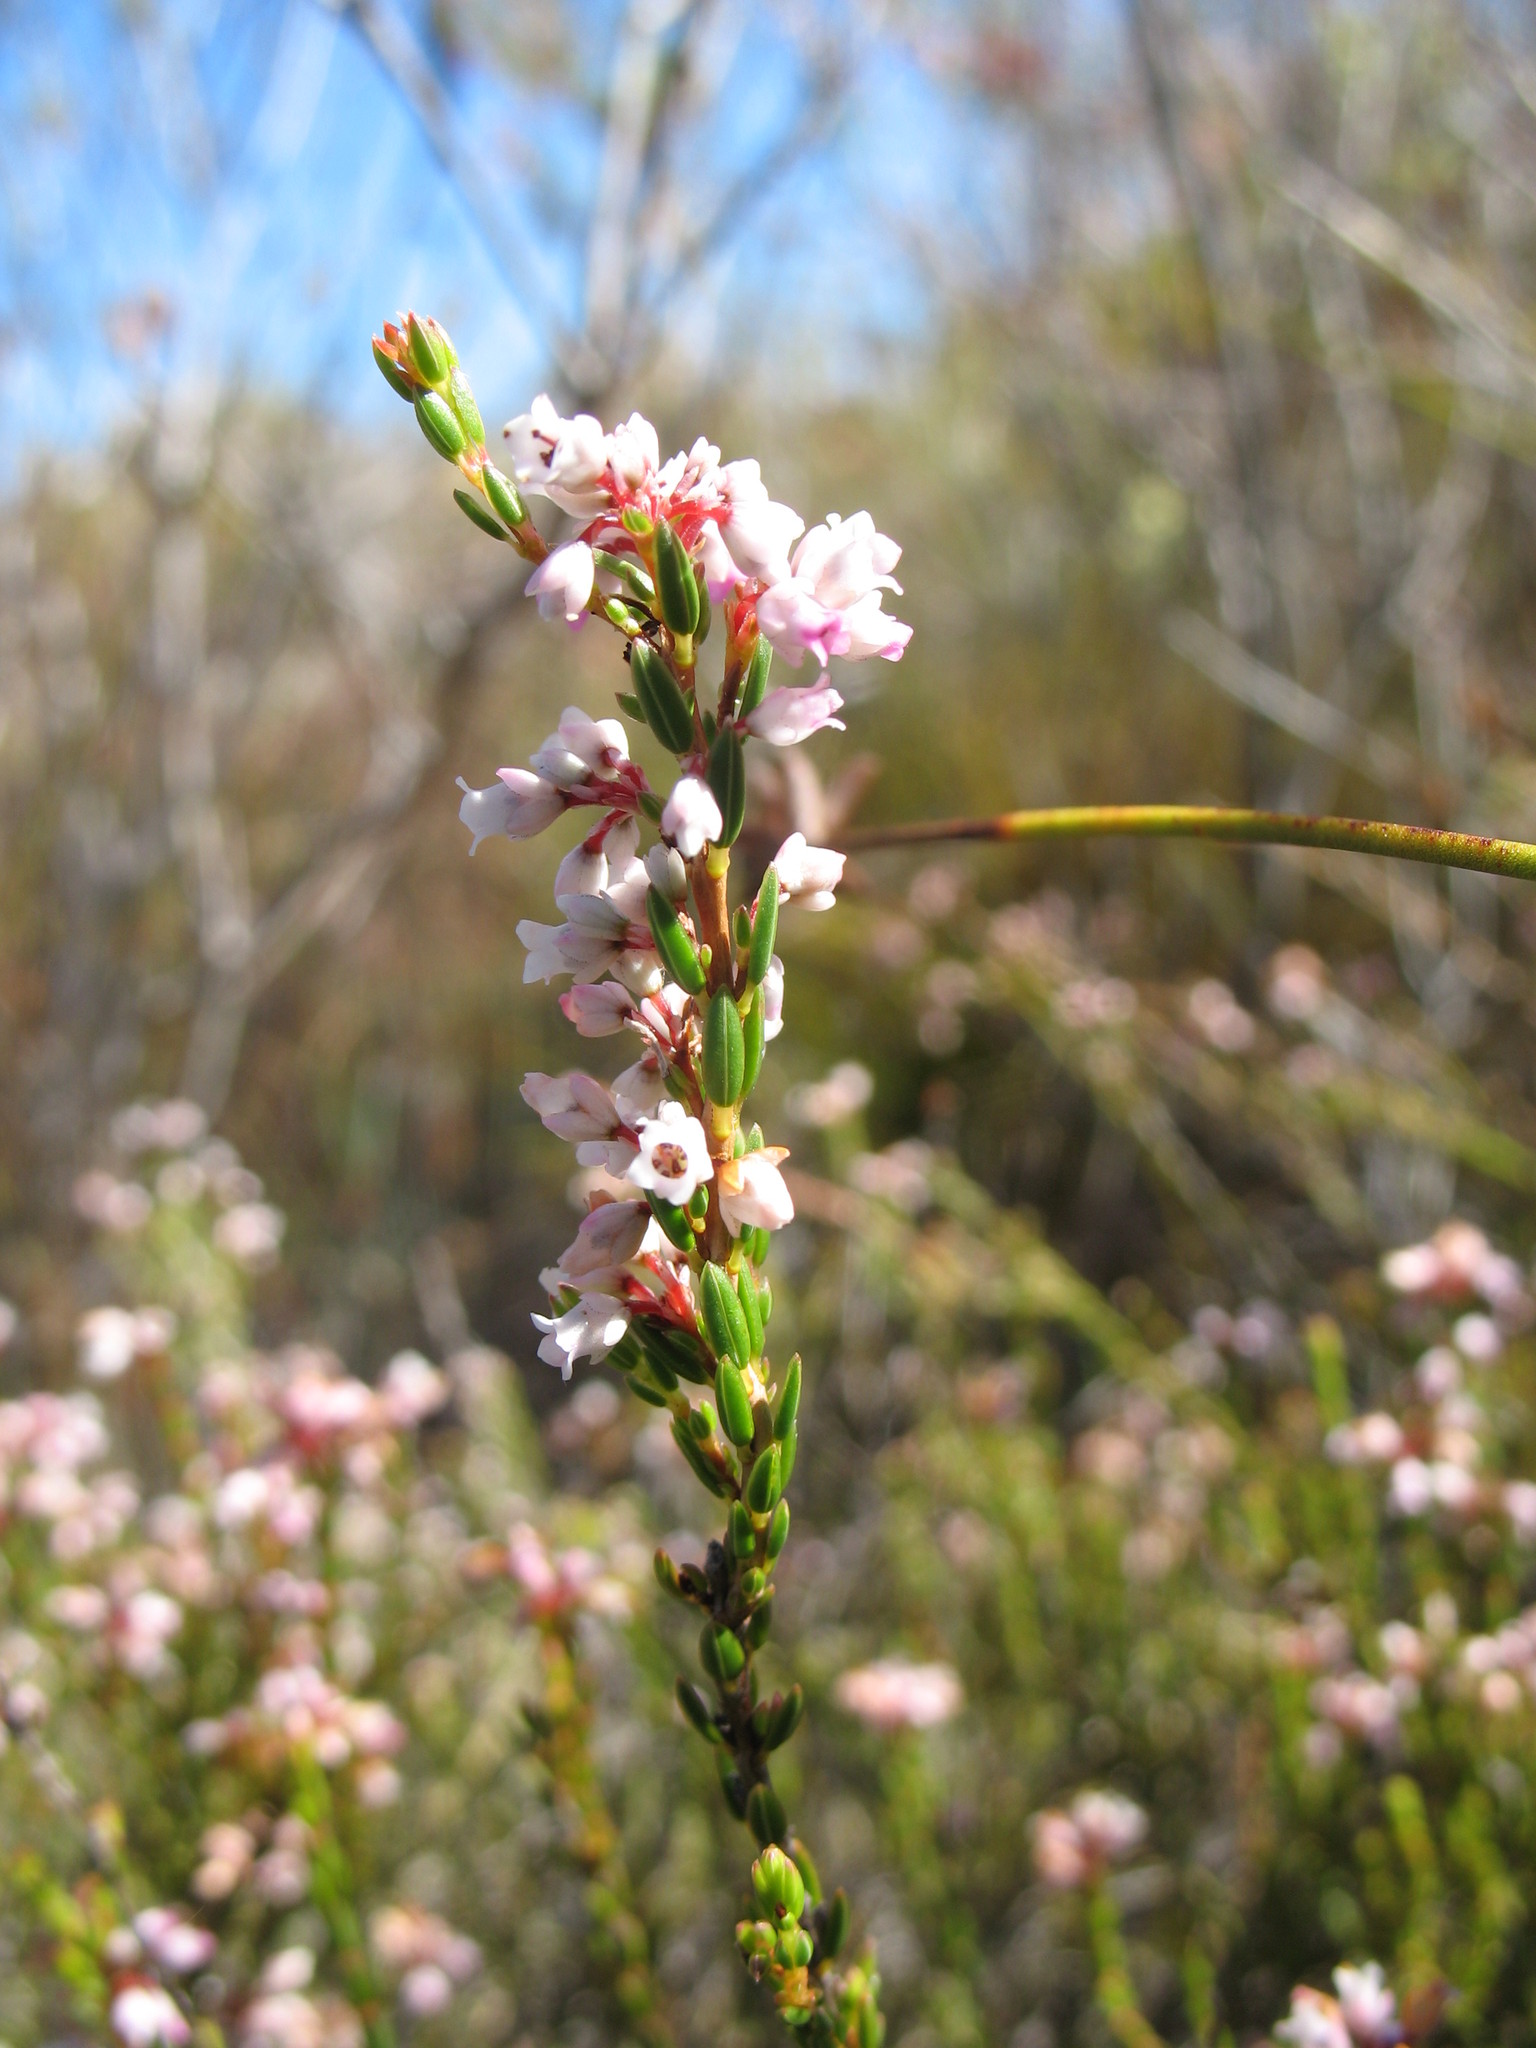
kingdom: Plantae
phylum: Tracheophyta
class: Magnoliopsida
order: Ericales
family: Ericaceae
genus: Erica
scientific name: Erica articularis
